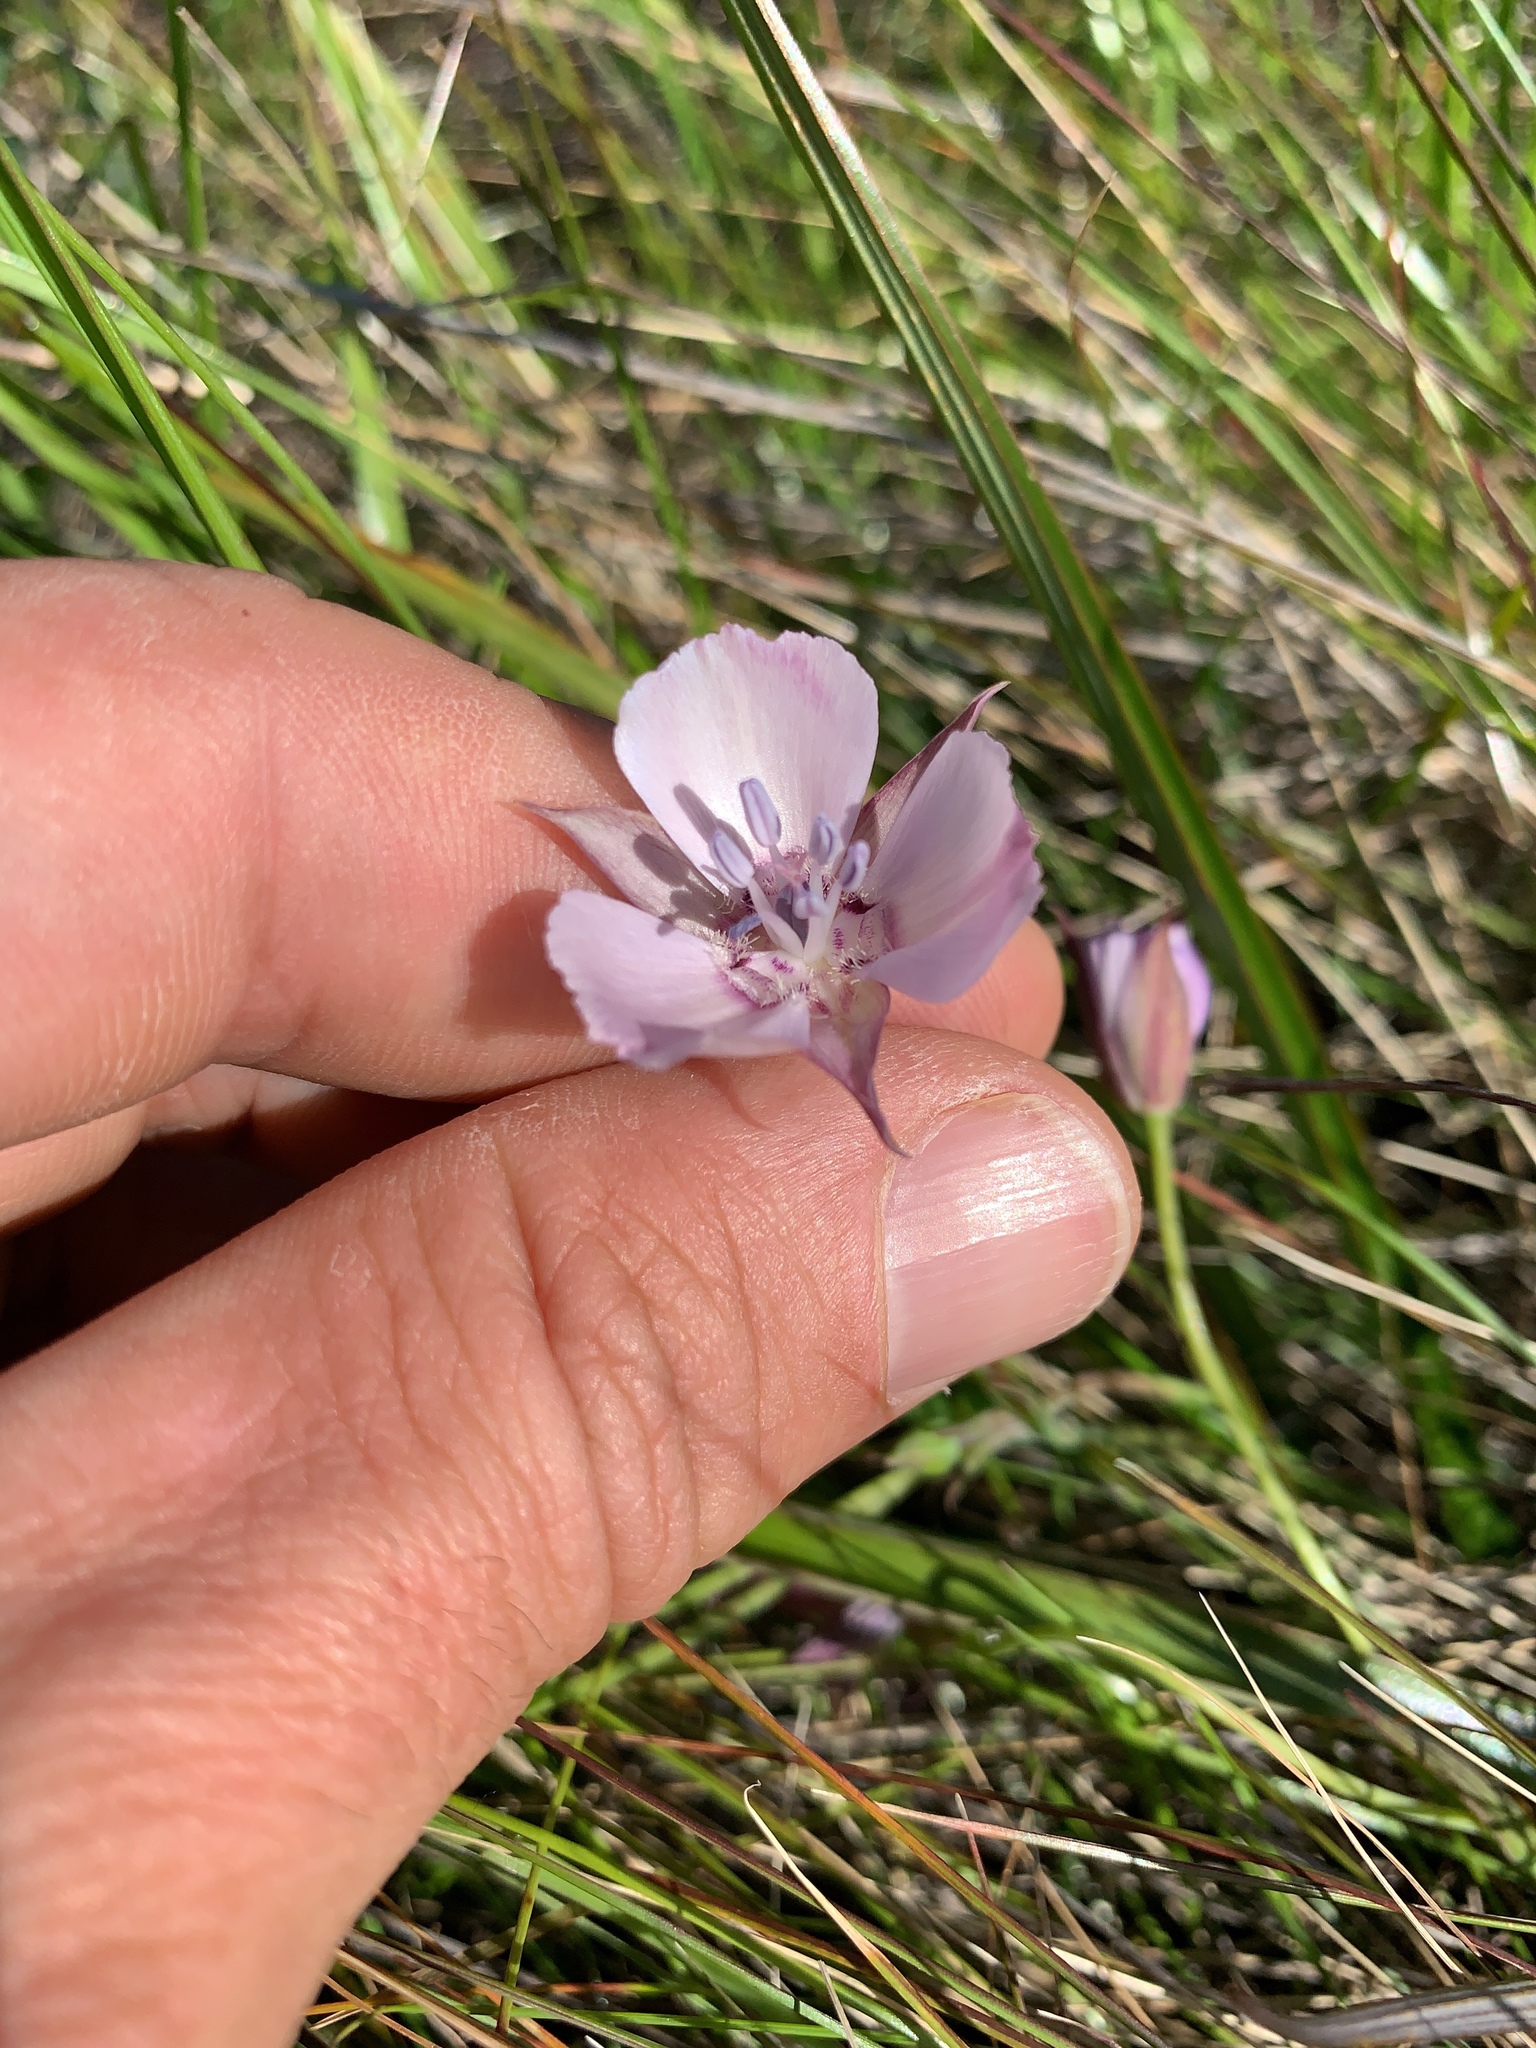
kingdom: Plantae
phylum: Tracheophyta
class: Liliopsida
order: Liliales
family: Liliaceae
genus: Calochortus
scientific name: Calochortus umbellatus
